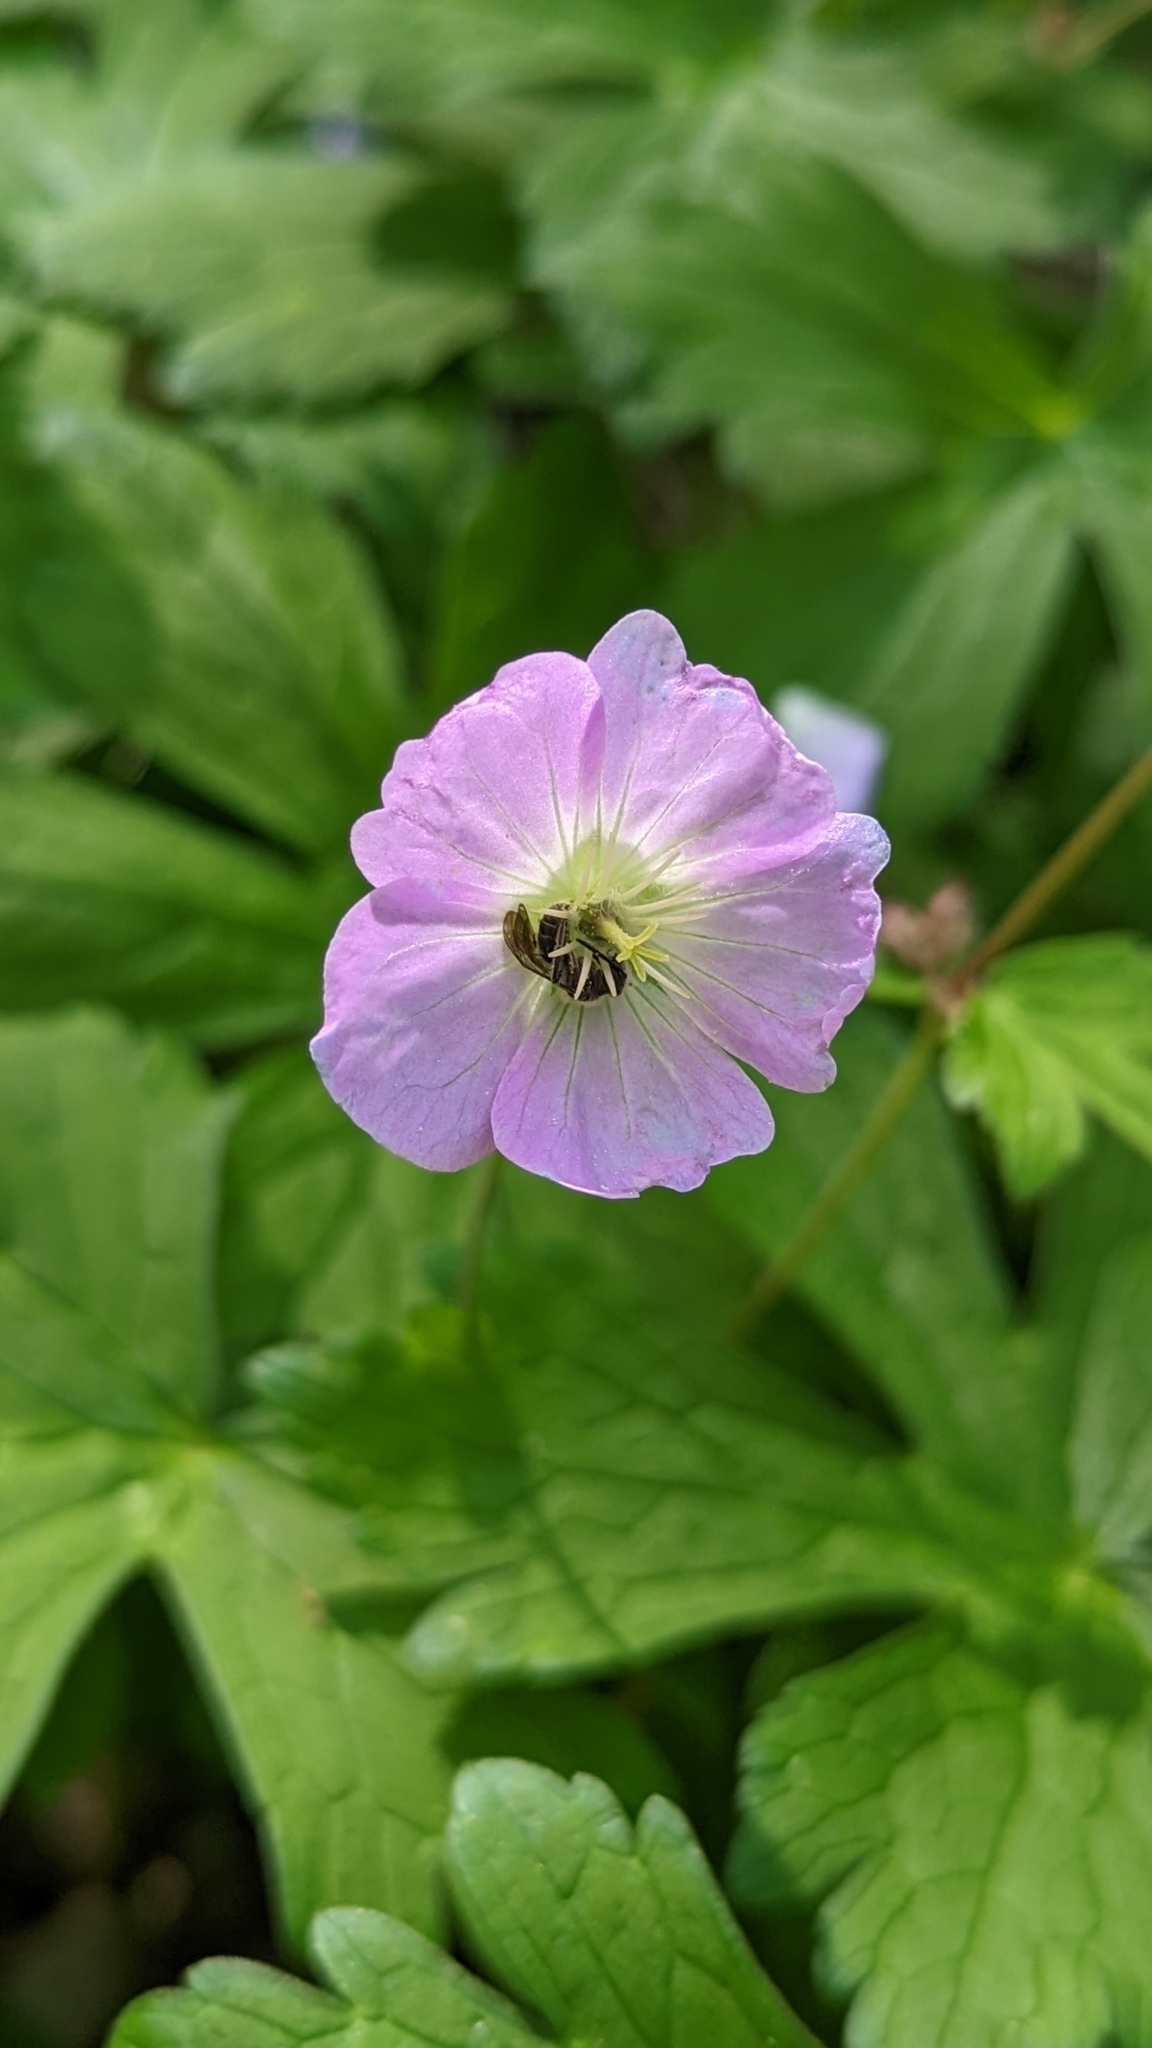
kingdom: Plantae
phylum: Tracheophyta
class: Magnoliopsida
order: Geraniales
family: Geraniaceae
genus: Geranium
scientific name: Geranium maculatum
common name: Spotted geranium
